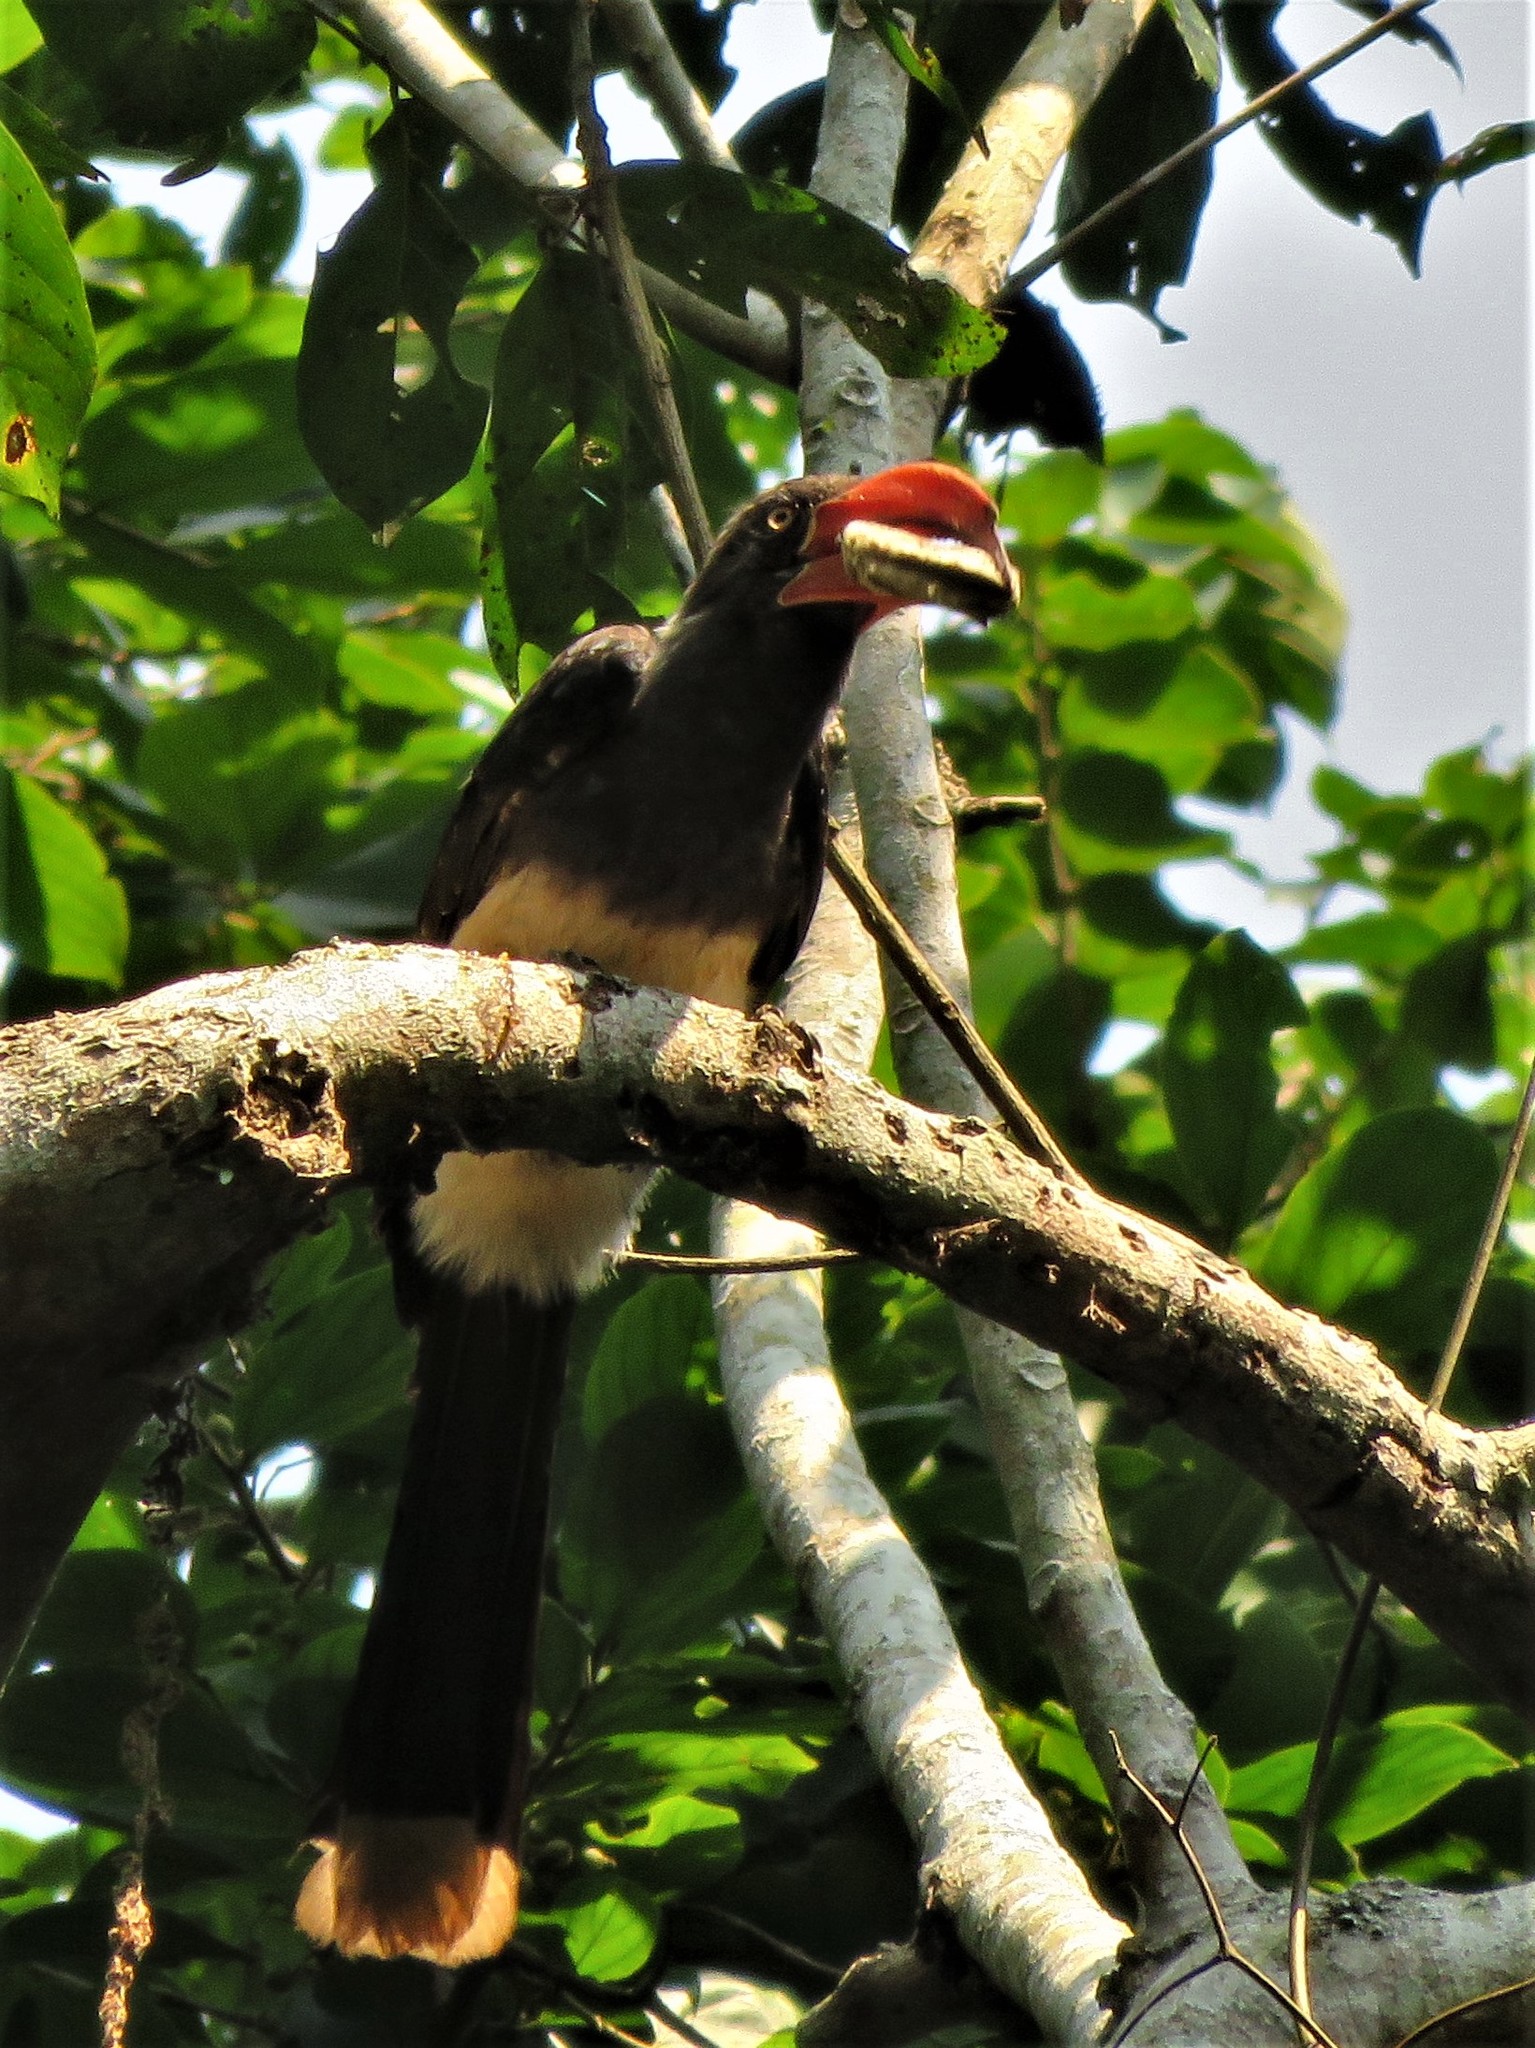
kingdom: Animalia
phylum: Chordata
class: Aves
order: Bucerotiformes
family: Bucerotidae
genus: Lophoceros
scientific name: Lophoceros alboterminatus
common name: Crowned hornbill
